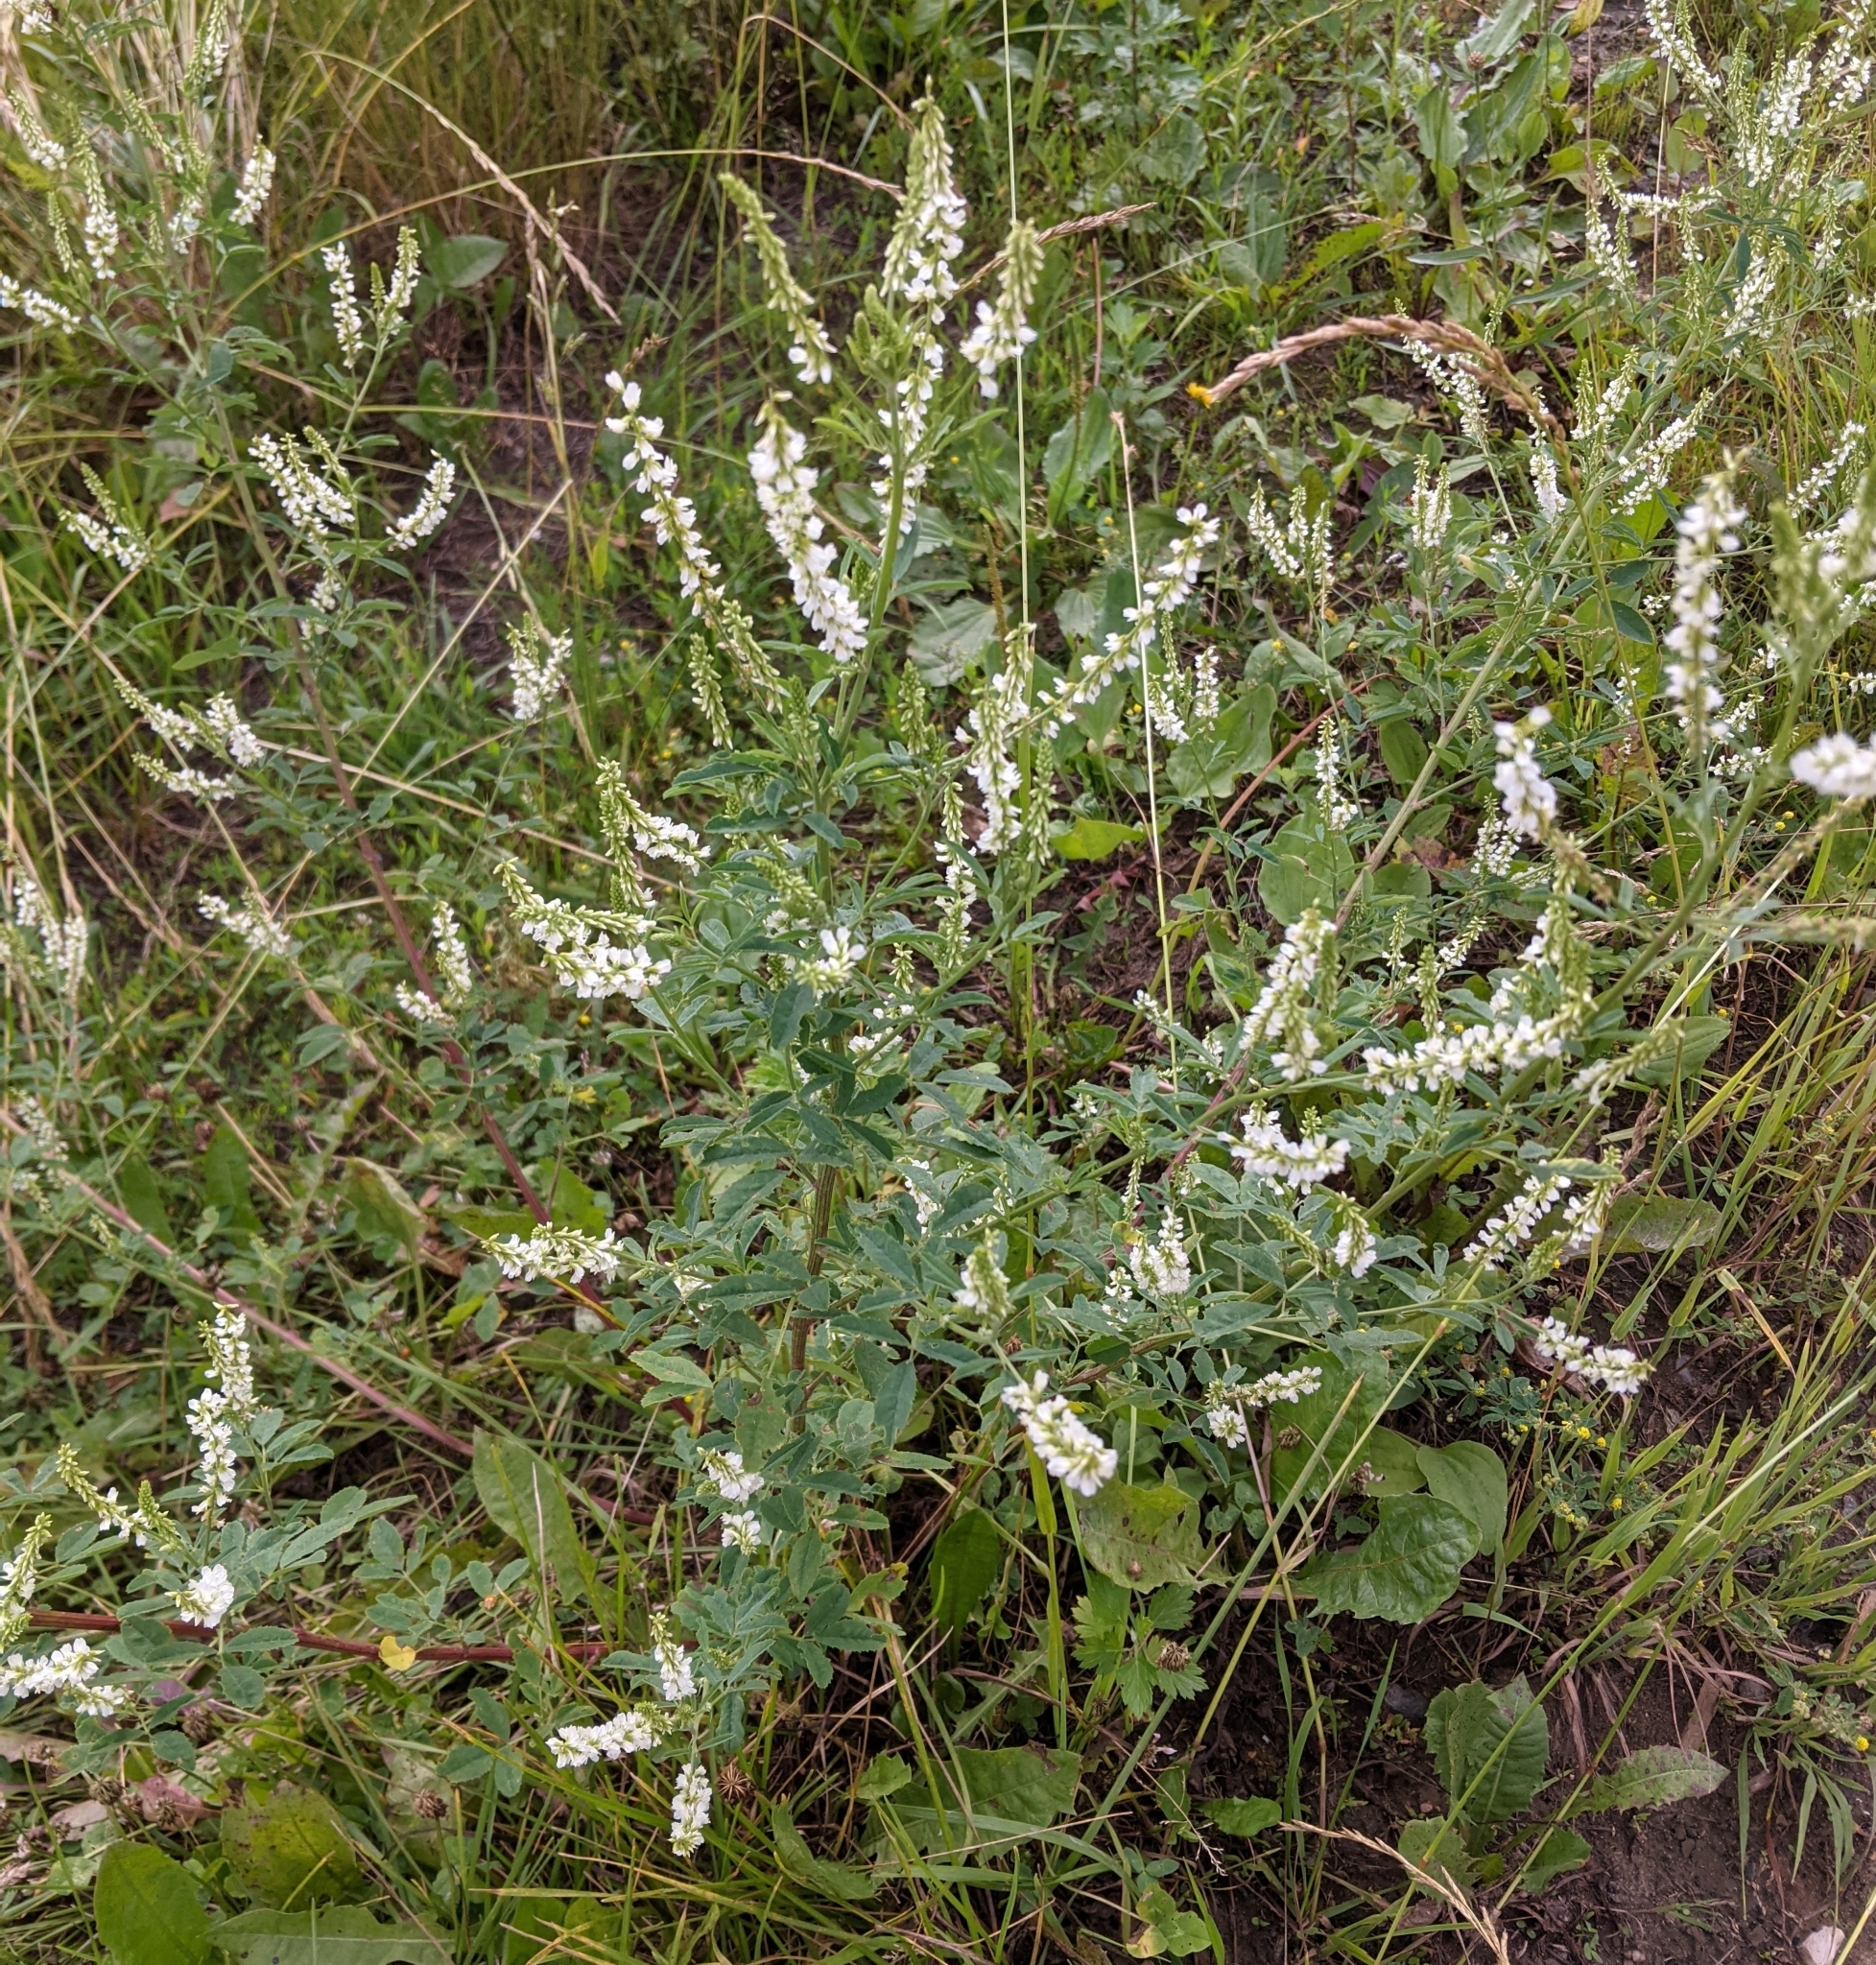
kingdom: Plantae
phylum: Tracheophyta
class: Magnoliopsida
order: Fabales
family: Fabaceae
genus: Melilotus
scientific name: Melilotus albus
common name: White melilot
